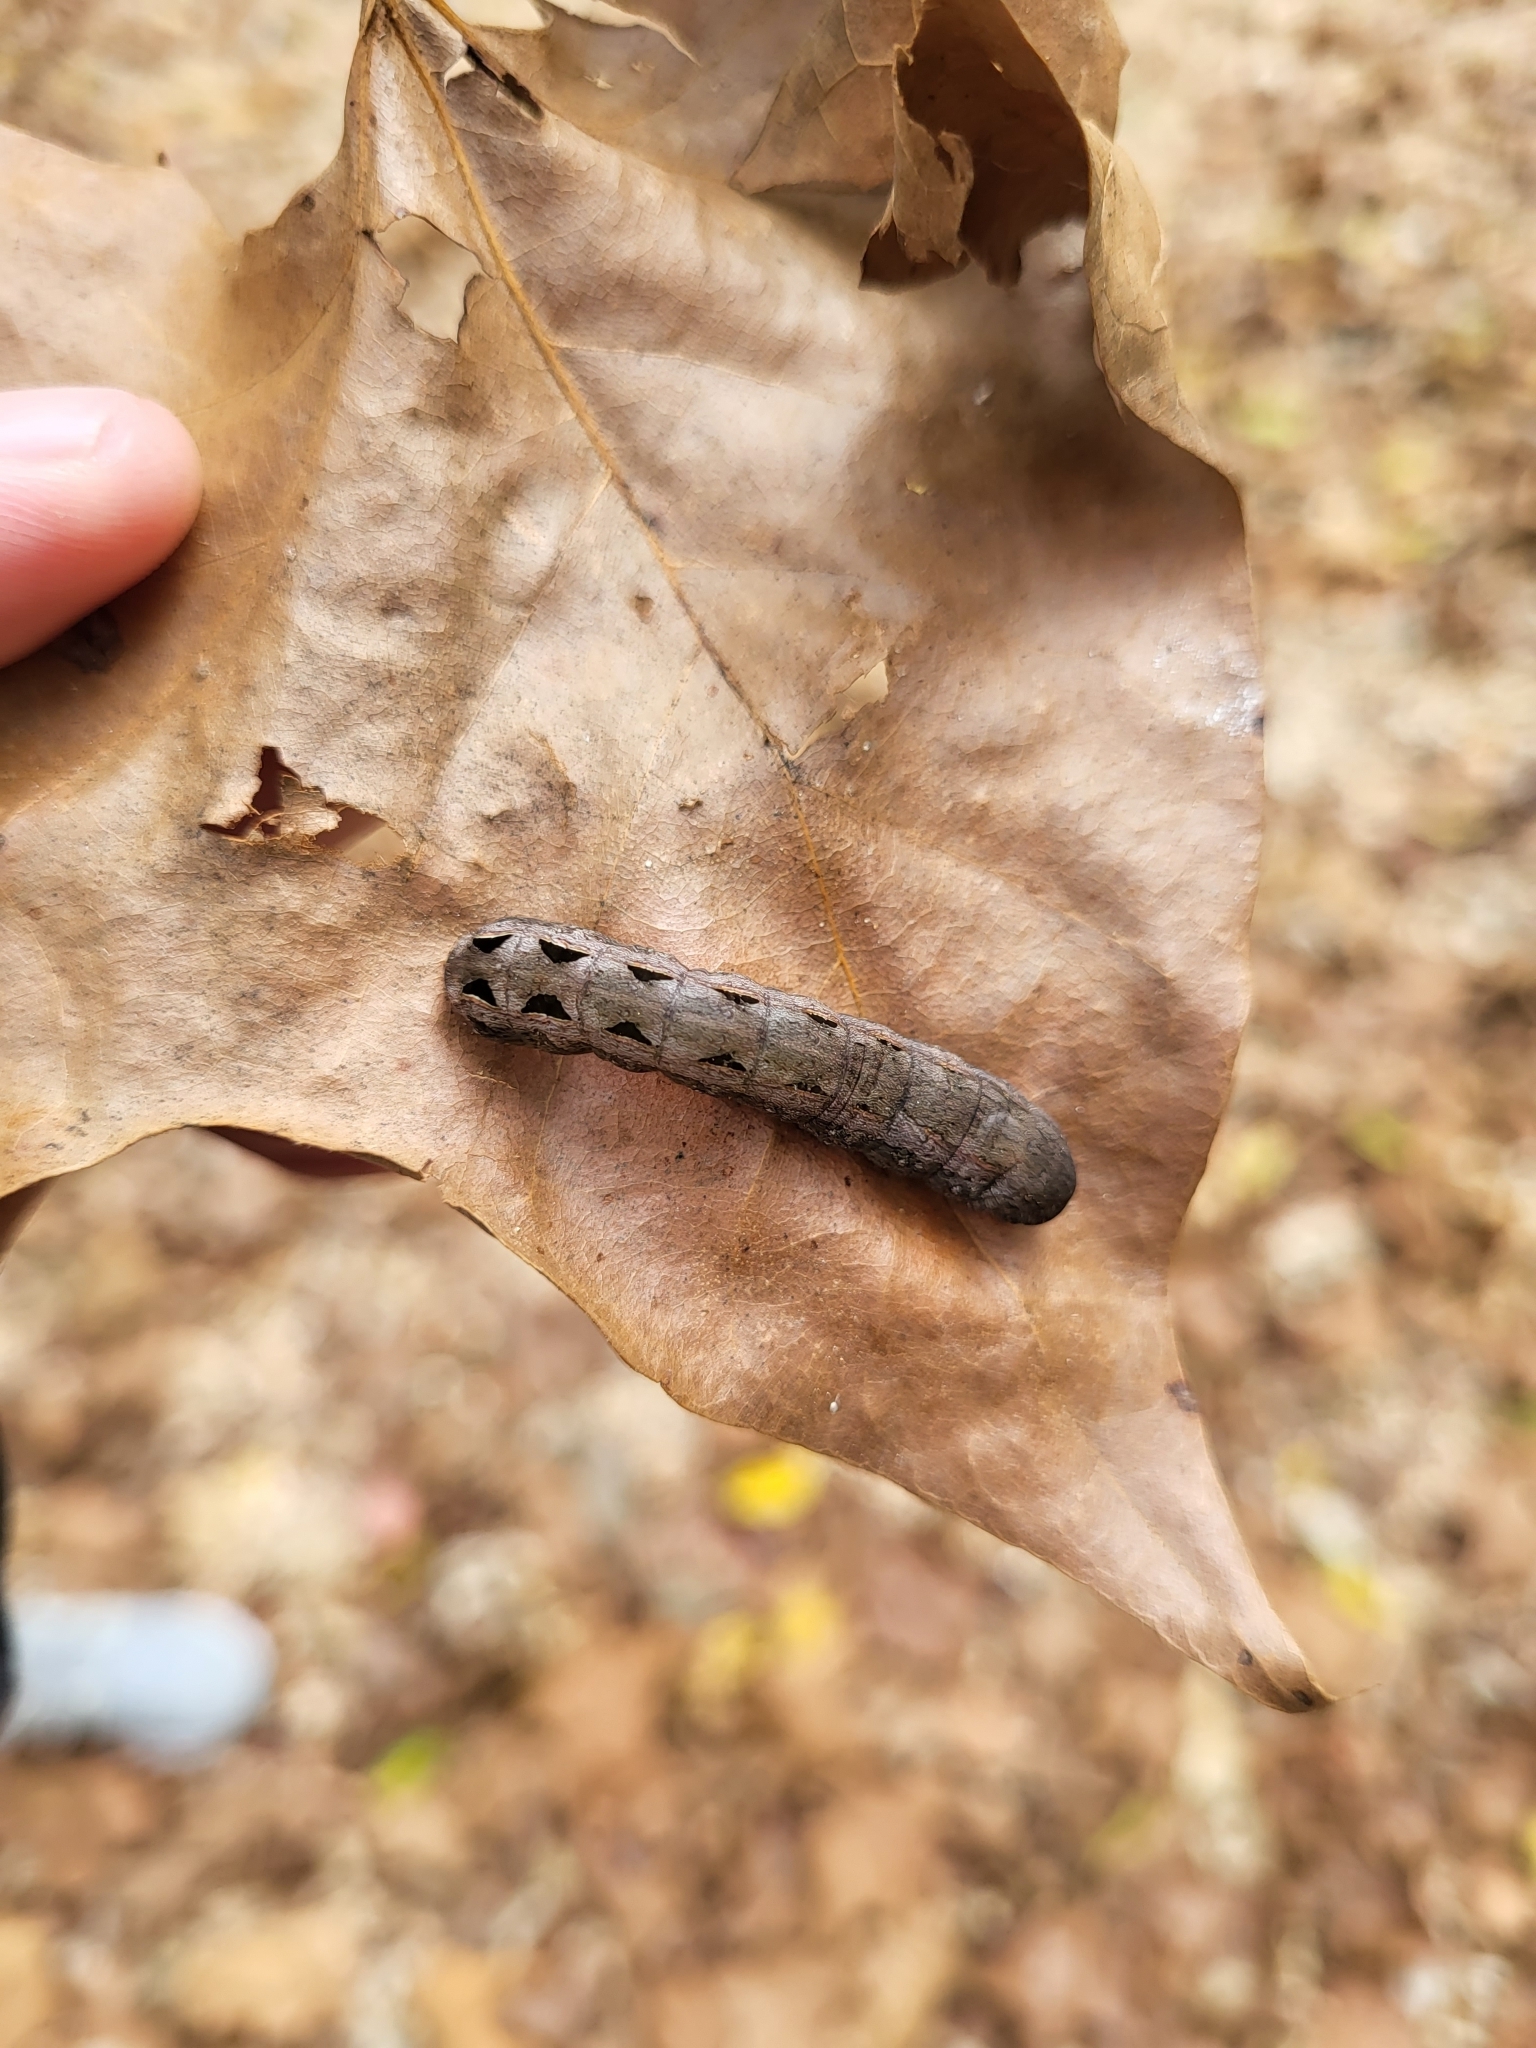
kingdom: Animalia
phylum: Arthropoda
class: Insecta
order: Lepidoptera
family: Noctuidae
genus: Spodoptera
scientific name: Spodoptera dolichos
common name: Sweetpotato armyworm
